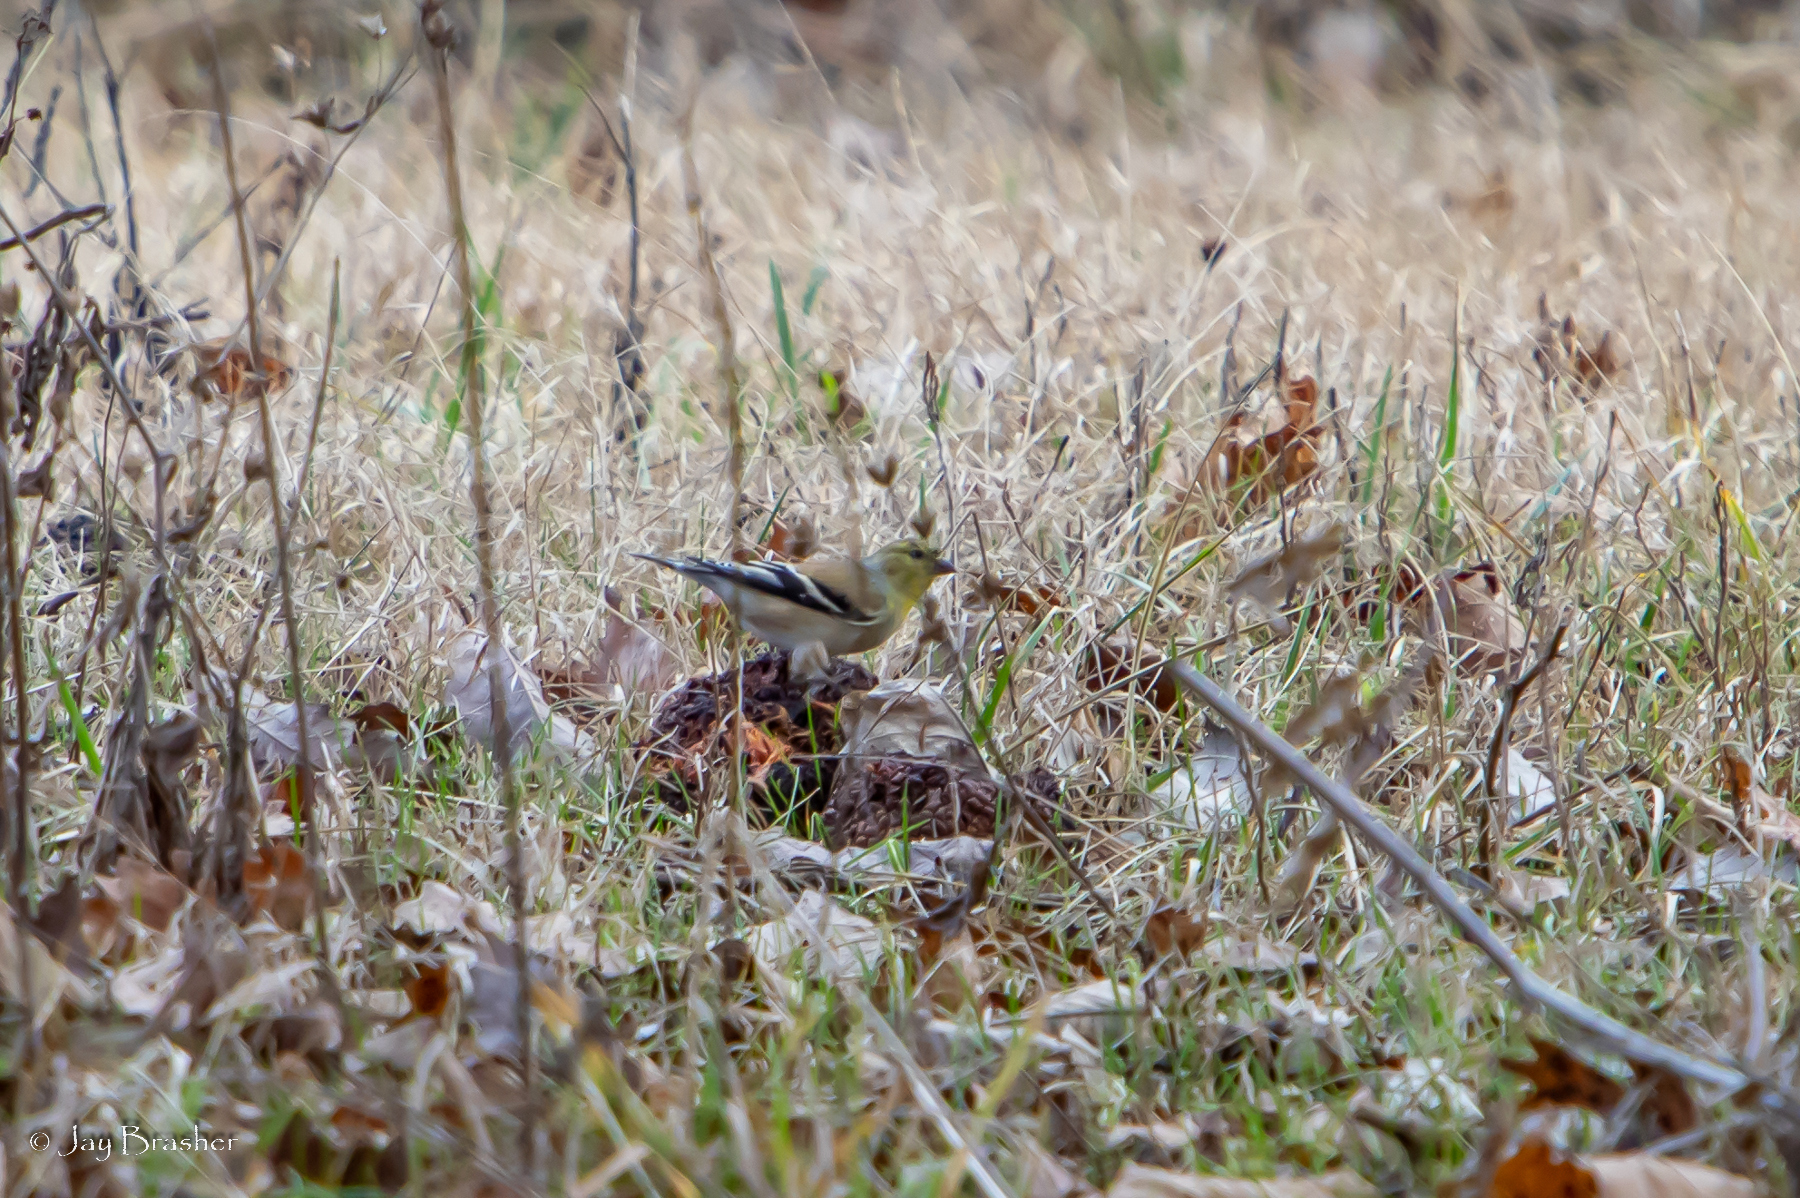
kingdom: Animalia
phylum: Chordata
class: Aves
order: Passeriformes
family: Fringillidae
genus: Spinus
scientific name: Spinus tristis
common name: American goldfinch
